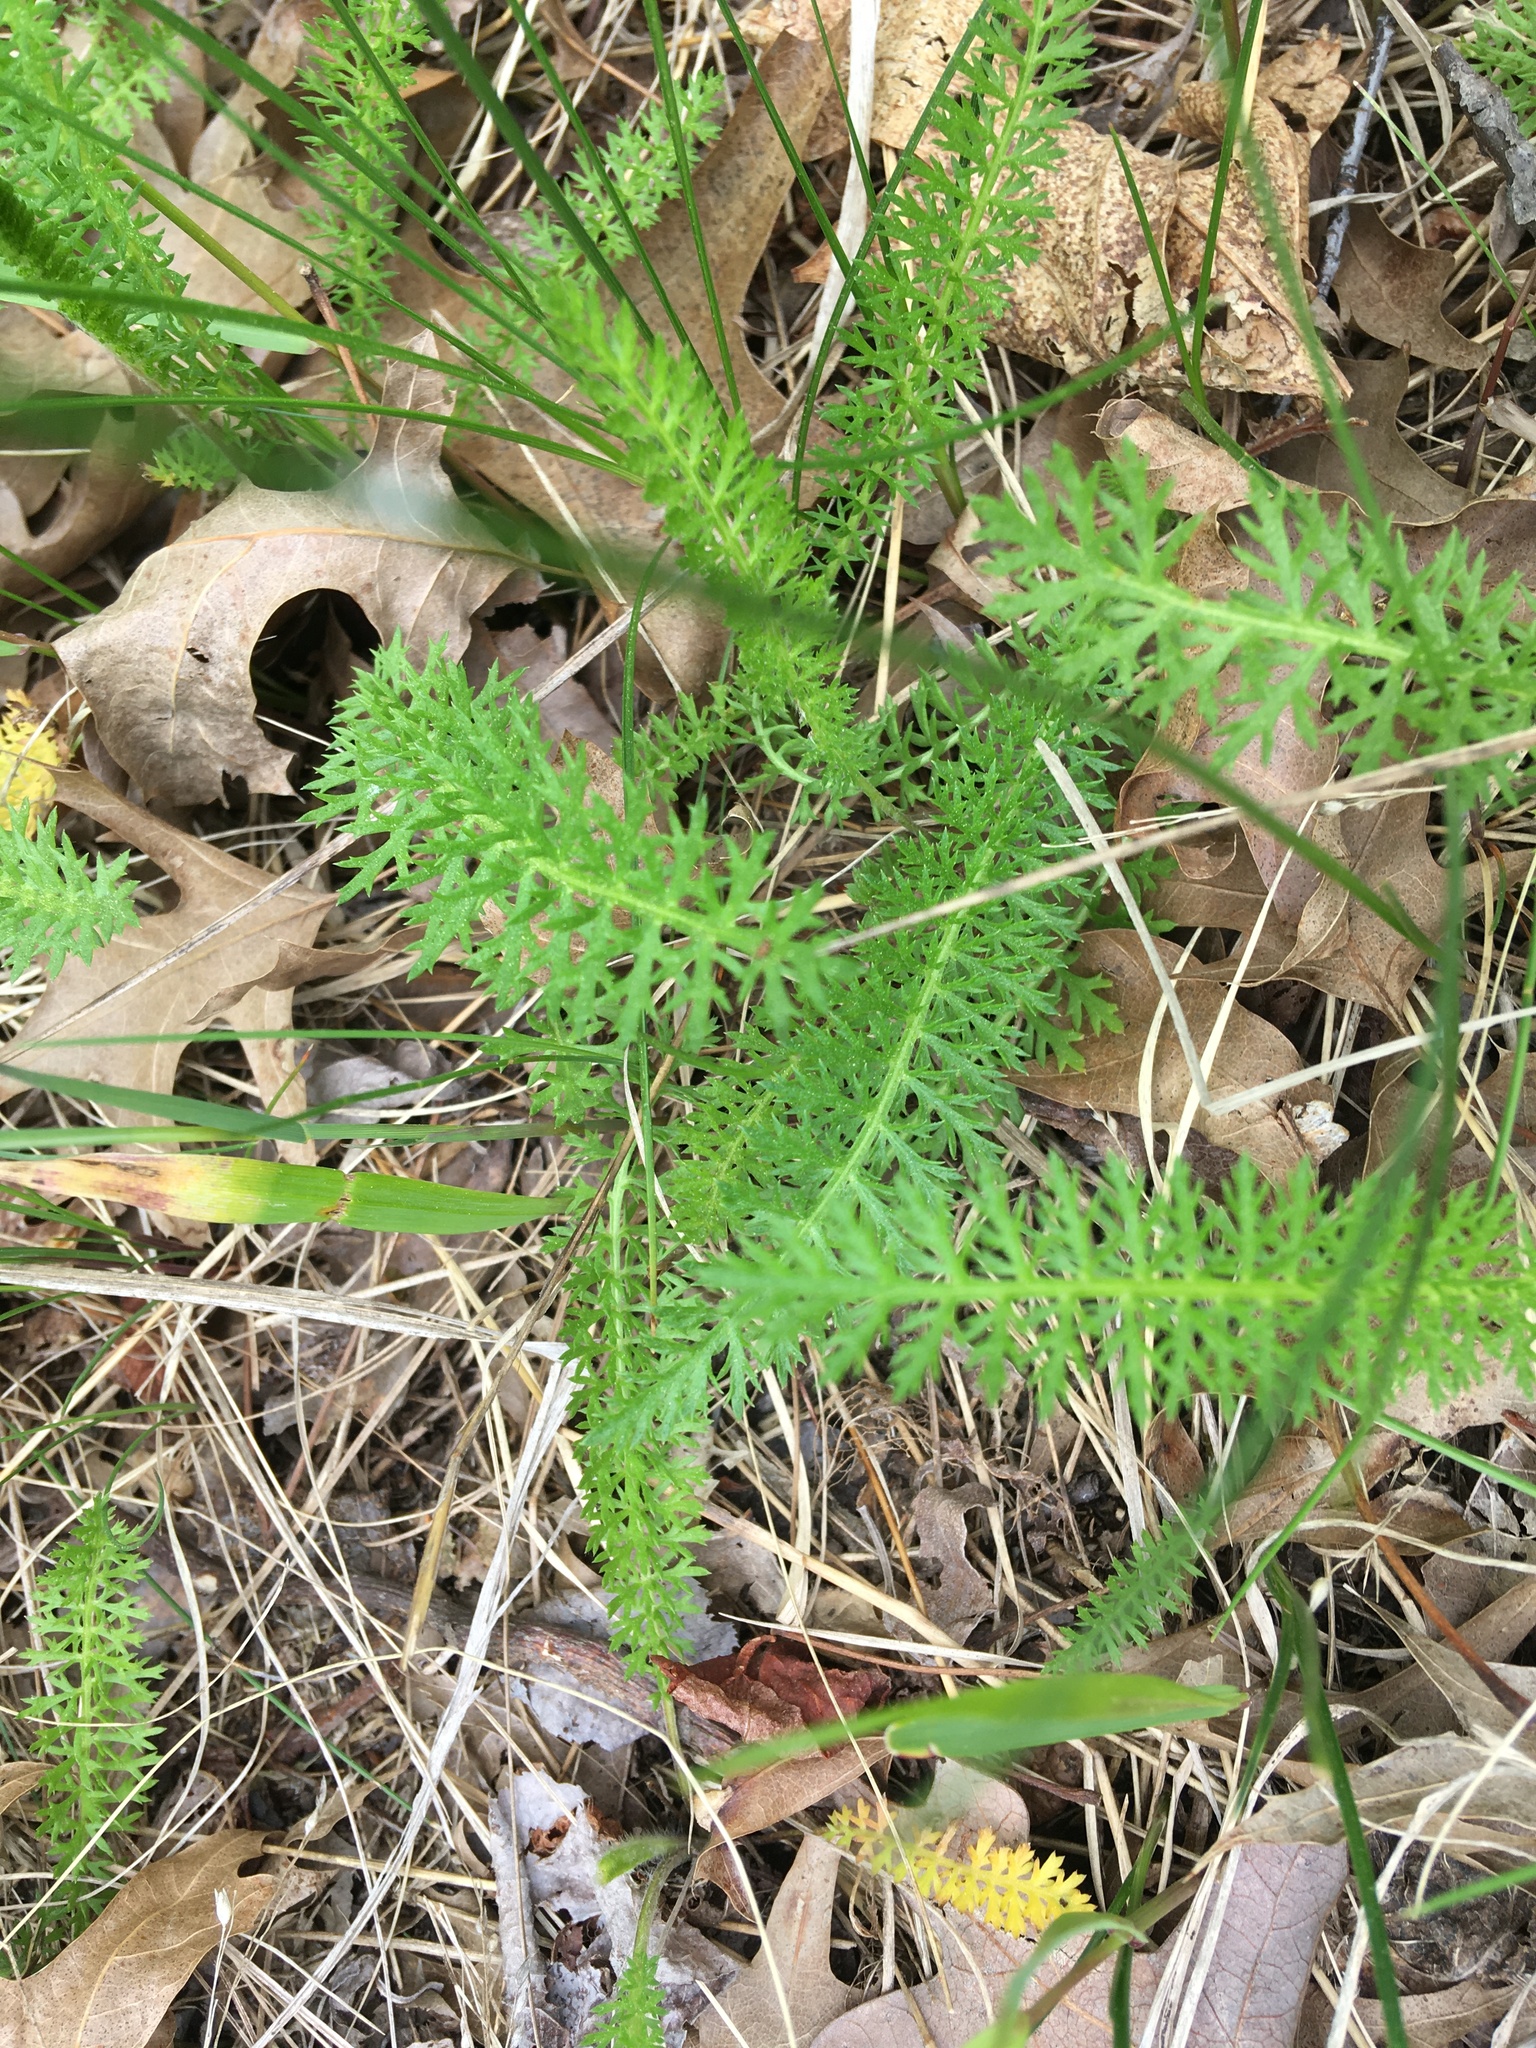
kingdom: Plantae
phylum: Tracheophyta
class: Magnoliopsida
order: Asterales
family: Asteraceae
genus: Achillea
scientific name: Achillea millefolium
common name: Yarrow
